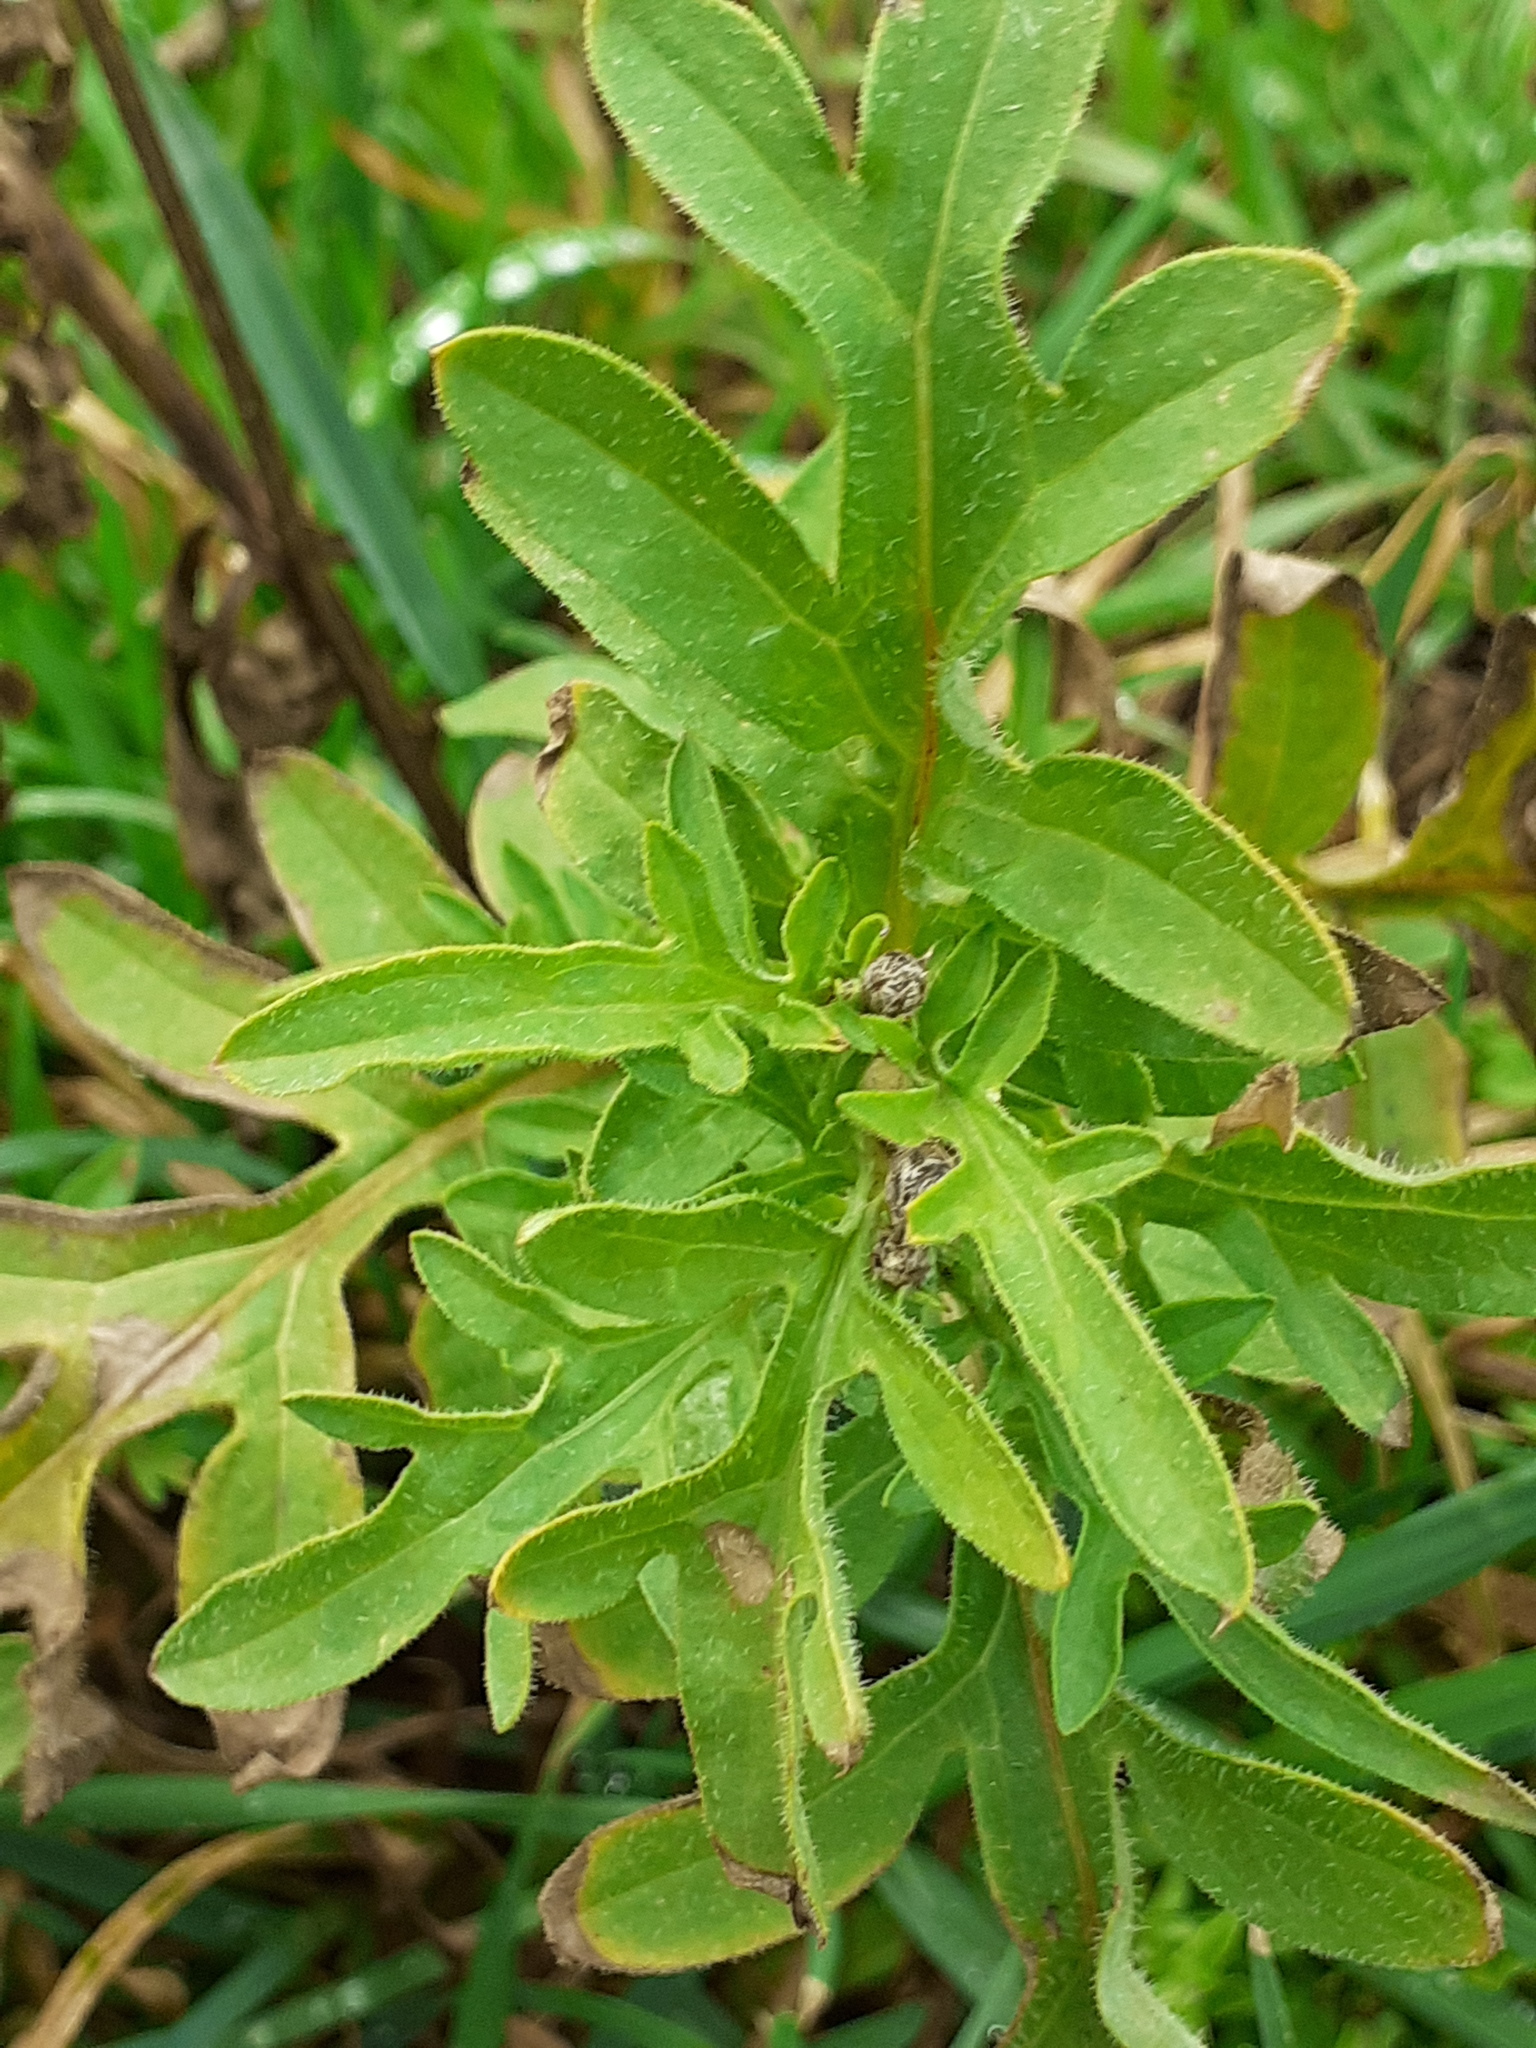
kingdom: Plantae
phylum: Tracheophyta
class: Magnoliopsida
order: Asterales
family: Asteraceae
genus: Centaurea
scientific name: Centaurea scabiosa
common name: Greater knapweed
